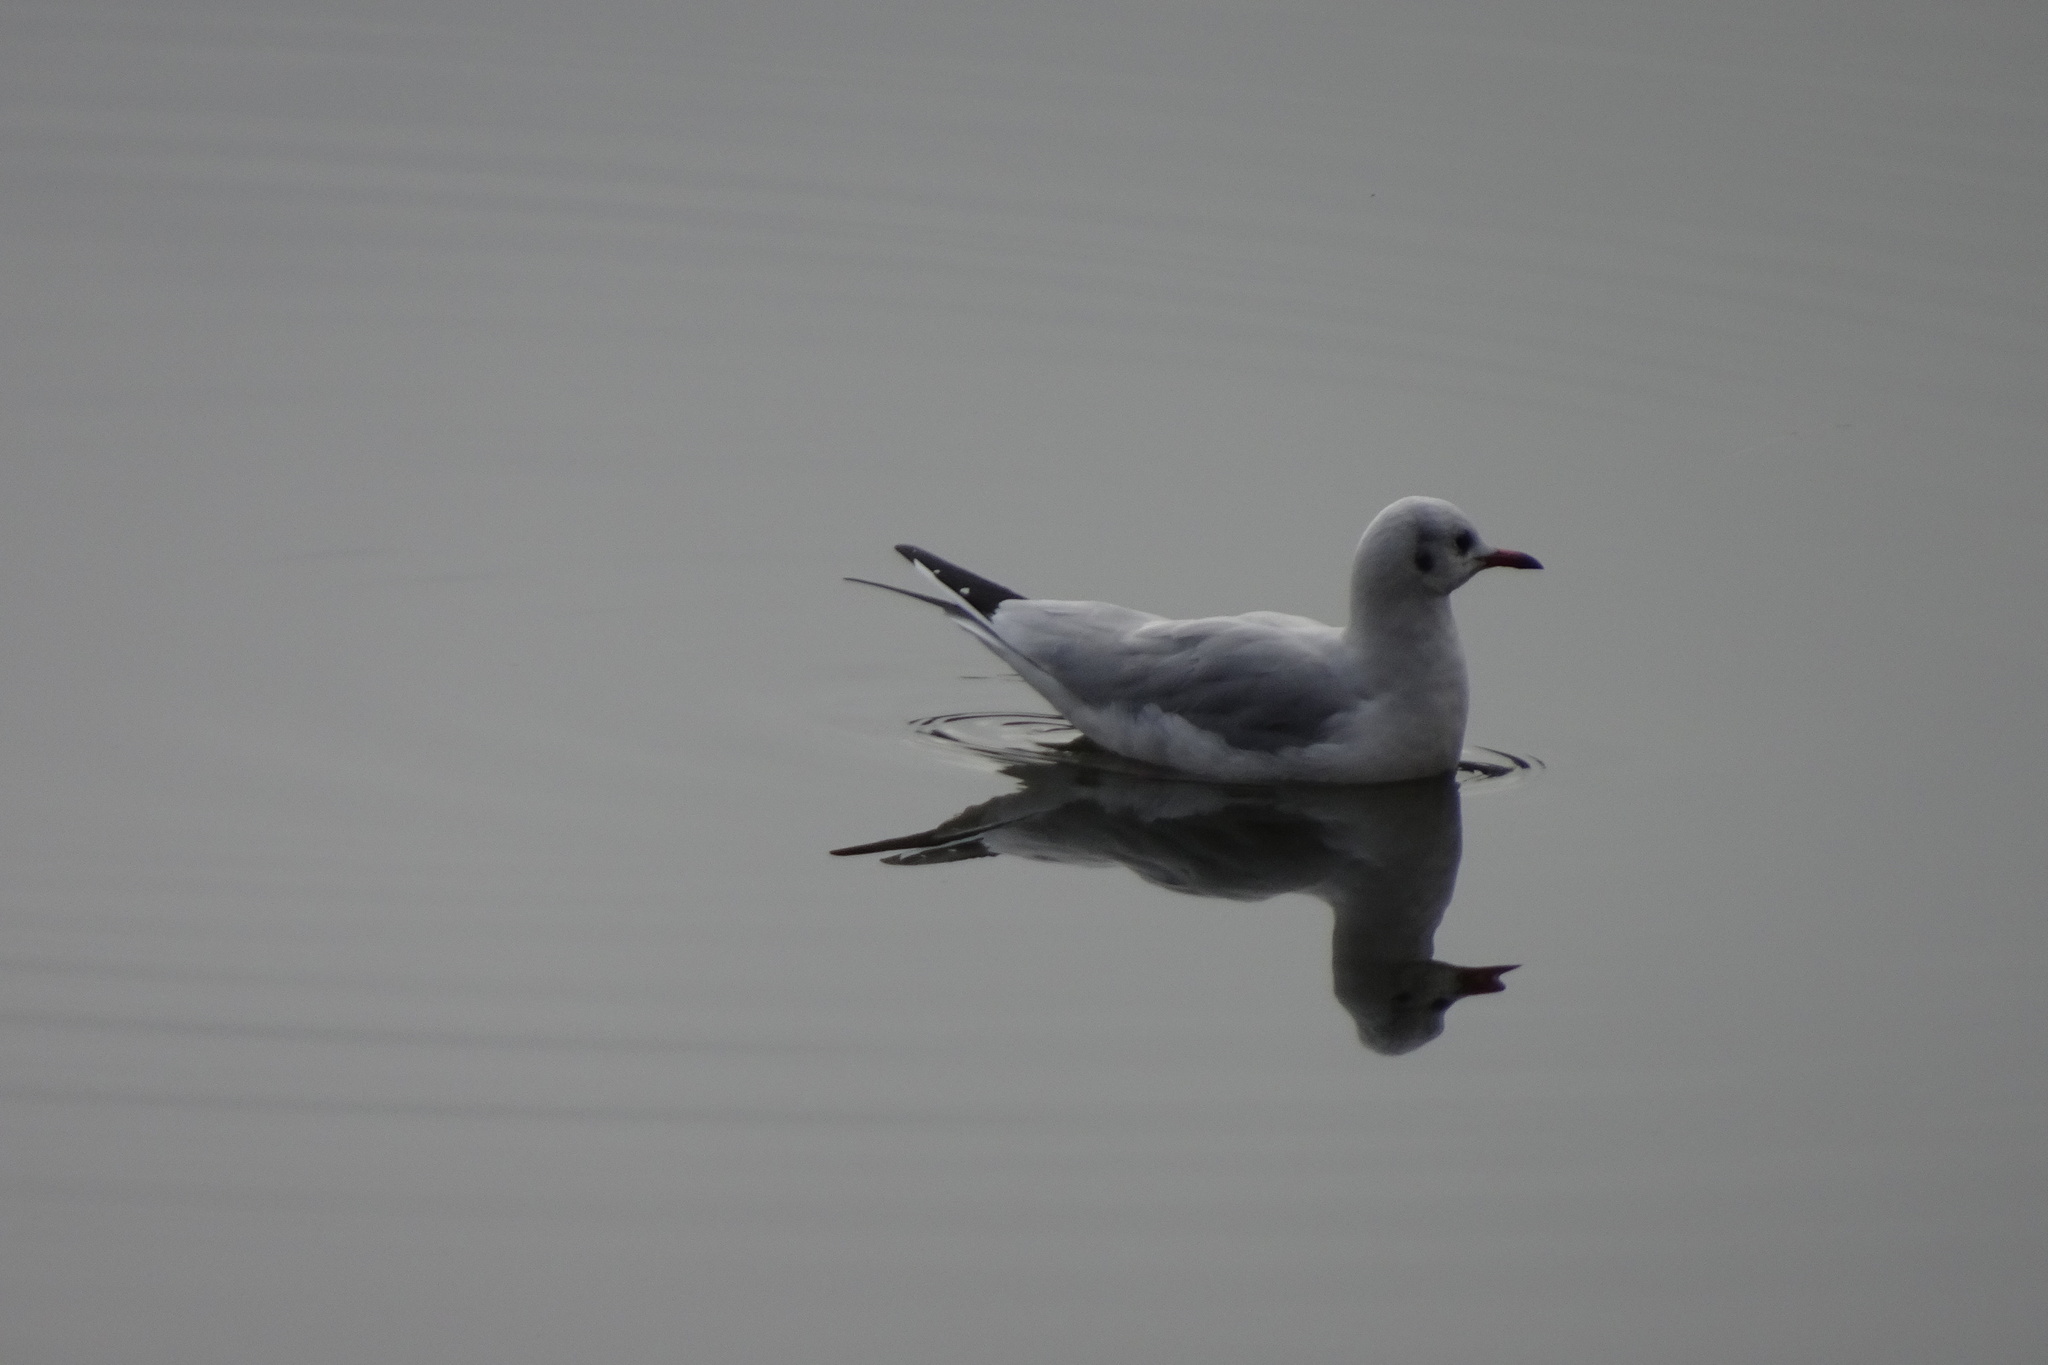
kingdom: Animalia
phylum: Chordata
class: Aves
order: Charadriiformes
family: Laridae
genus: Chroicocephalus
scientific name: Chroicocephalus ridibundus
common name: Black-headed gull
